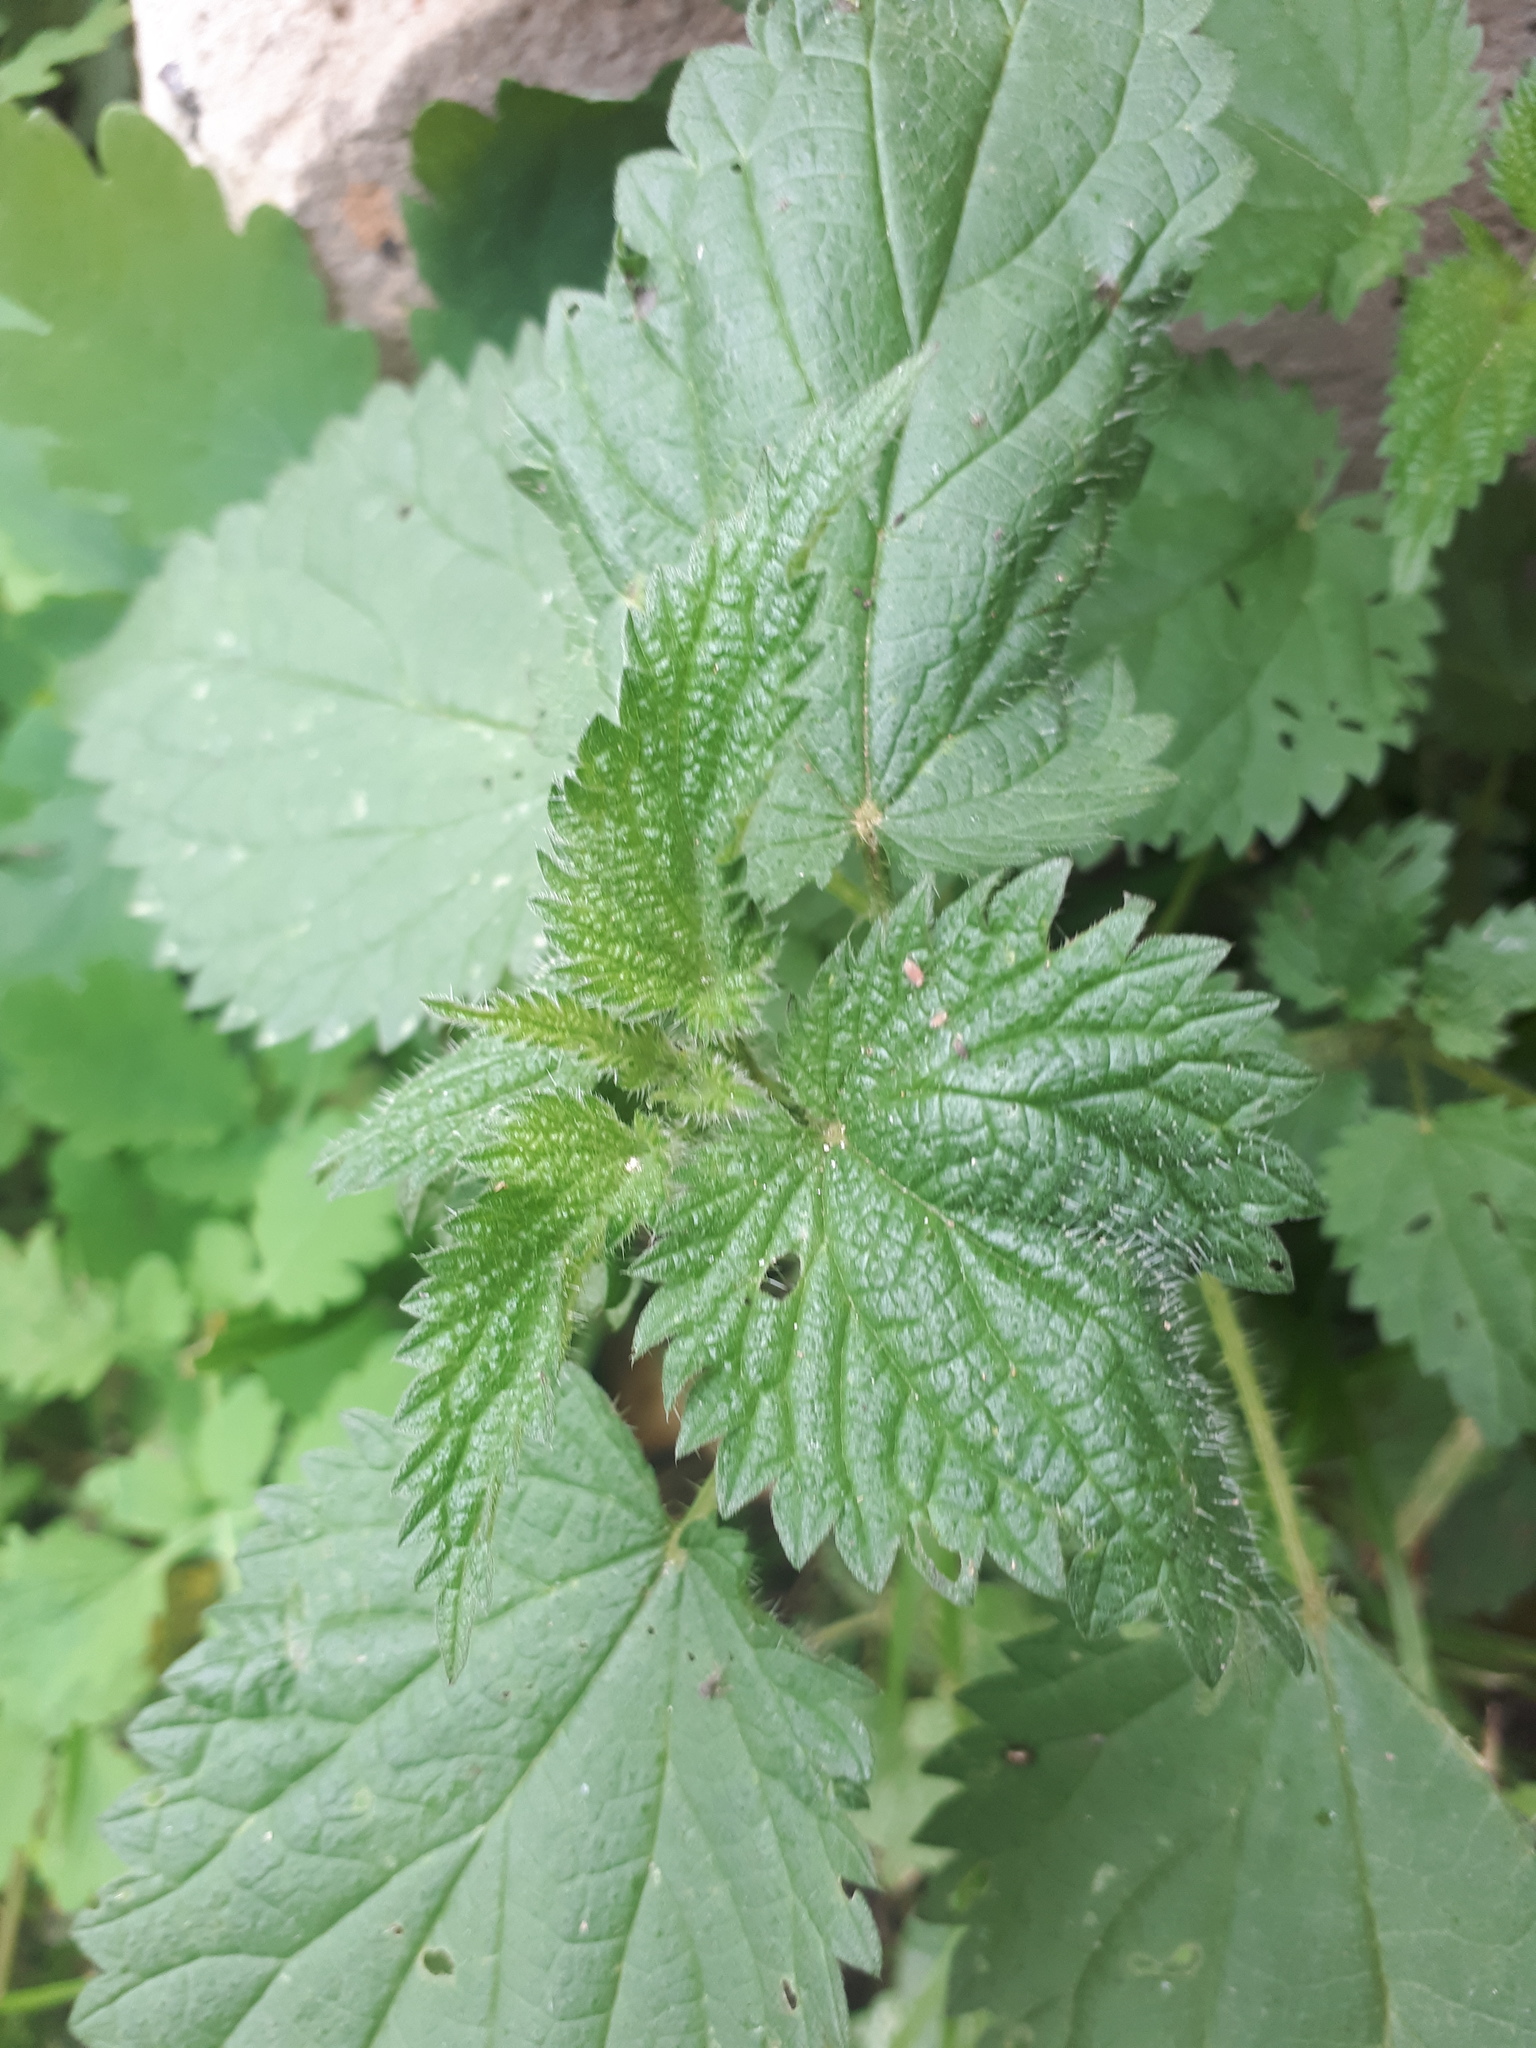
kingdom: Plantae
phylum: Tracheophyta
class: Magnoliopsida
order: Rosales
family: Urticaceae
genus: Urtica
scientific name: Urtica dioica
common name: Common nettle
